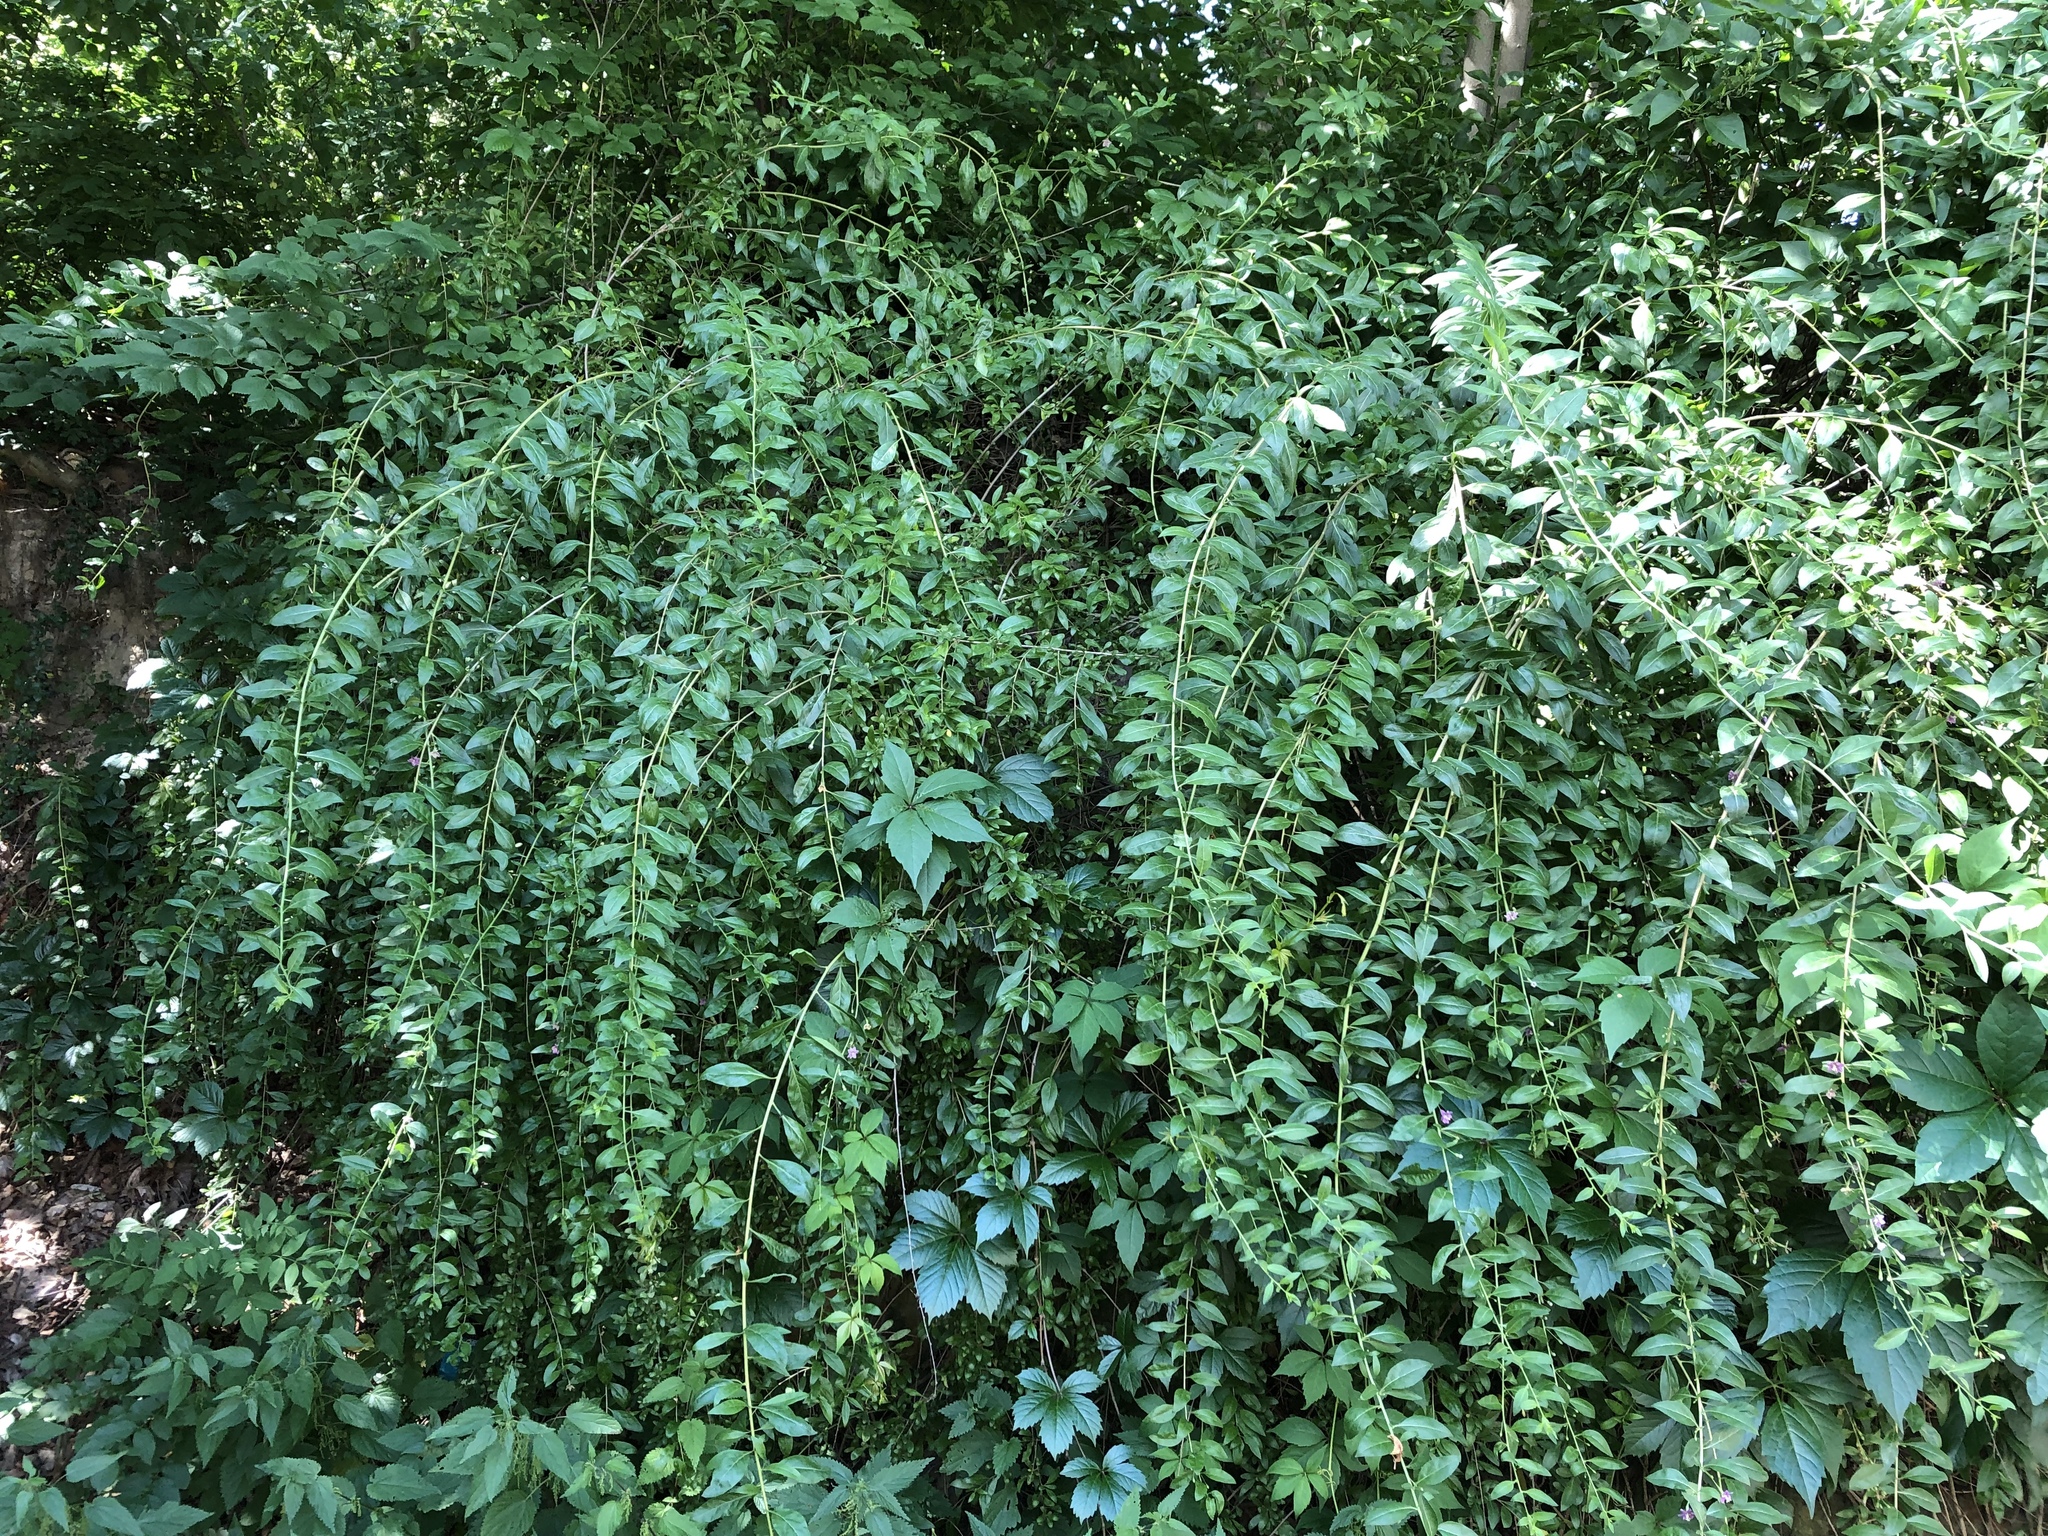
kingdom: Plantae
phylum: Tracheophyta
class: Magnoliopsida
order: Solanales
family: Solanaceae
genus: Lycium
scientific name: Lycium barbarum
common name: Duke of argyll's teaplant
